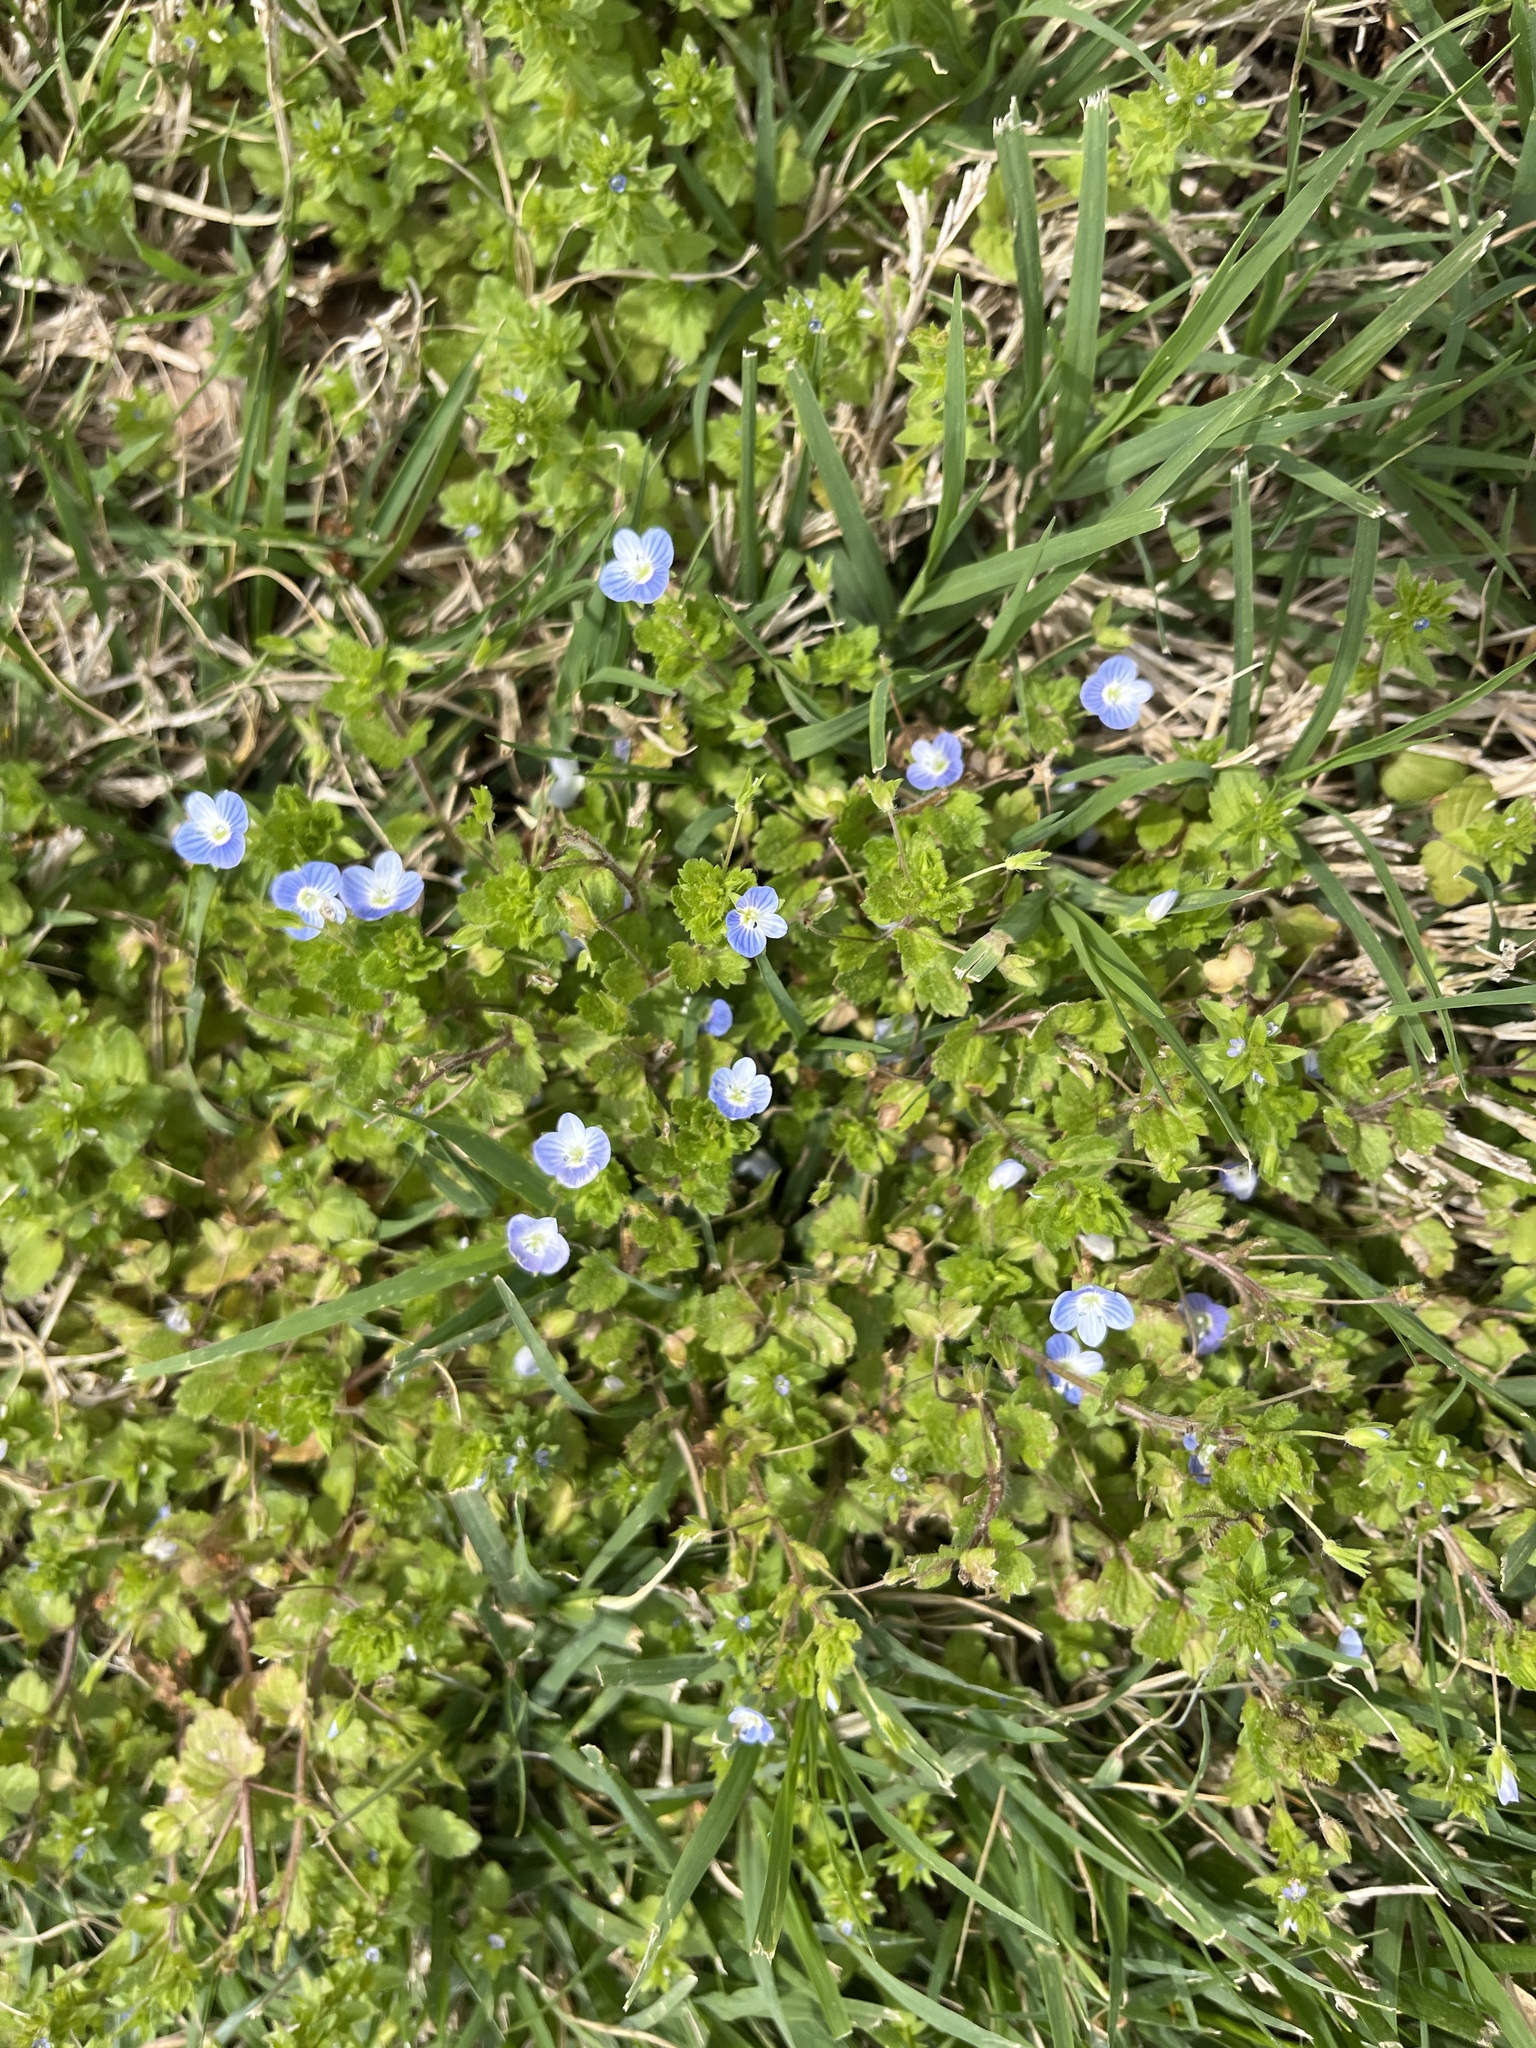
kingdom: Plantae
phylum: Tracheophyta
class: Magnoliopsida
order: Lamiales
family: Plantaginaceae
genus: Veronica
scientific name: Veronica persica
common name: Common field-speedwell
